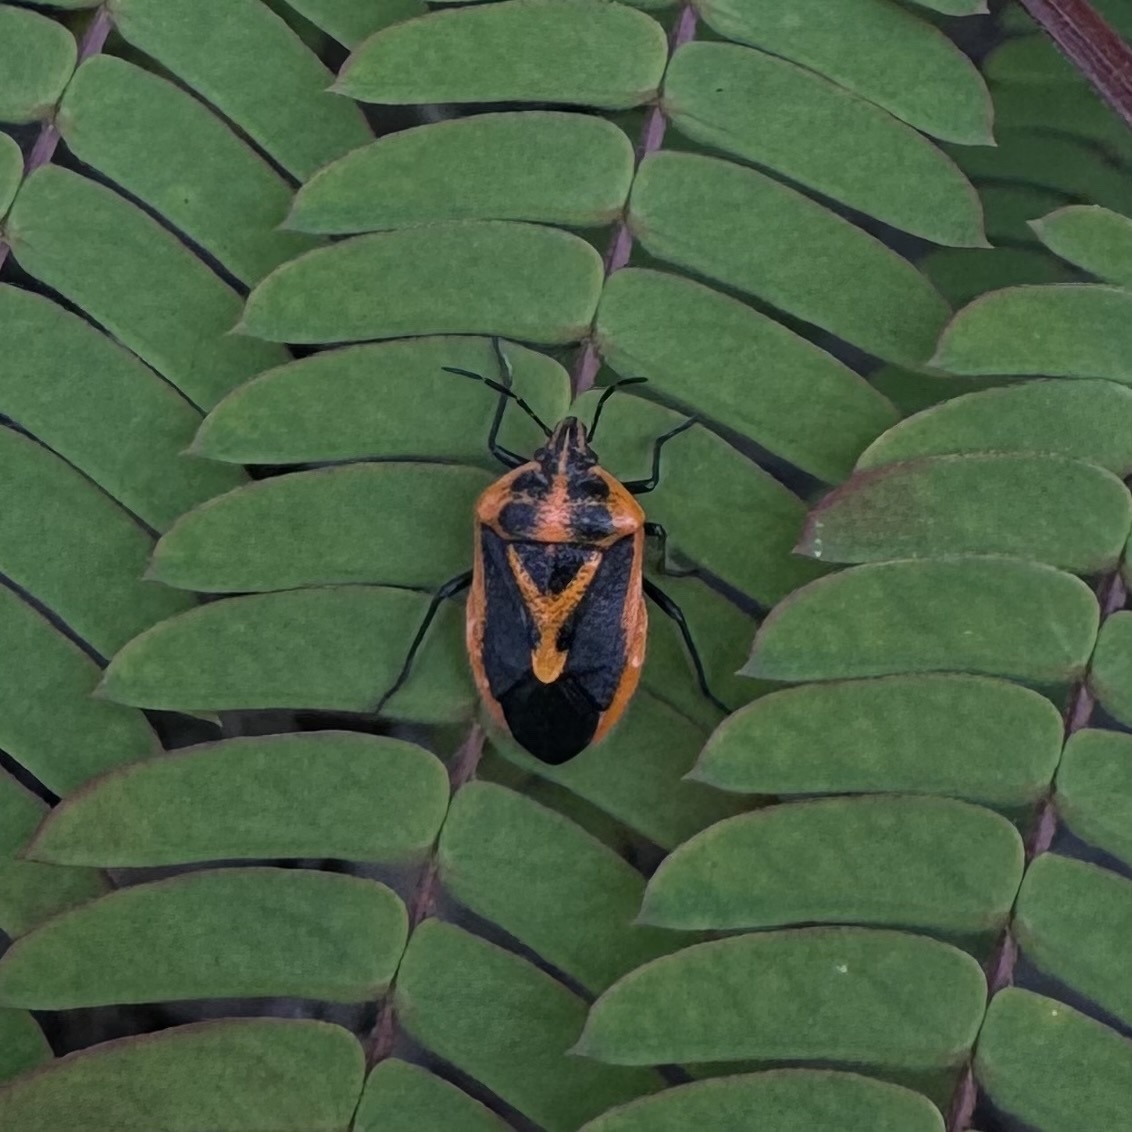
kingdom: Animalia
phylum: Arthropoda
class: Insecta
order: Hemiptera
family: Pentatomidae
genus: Agonoscelis
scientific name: Agonoscelis rutila
